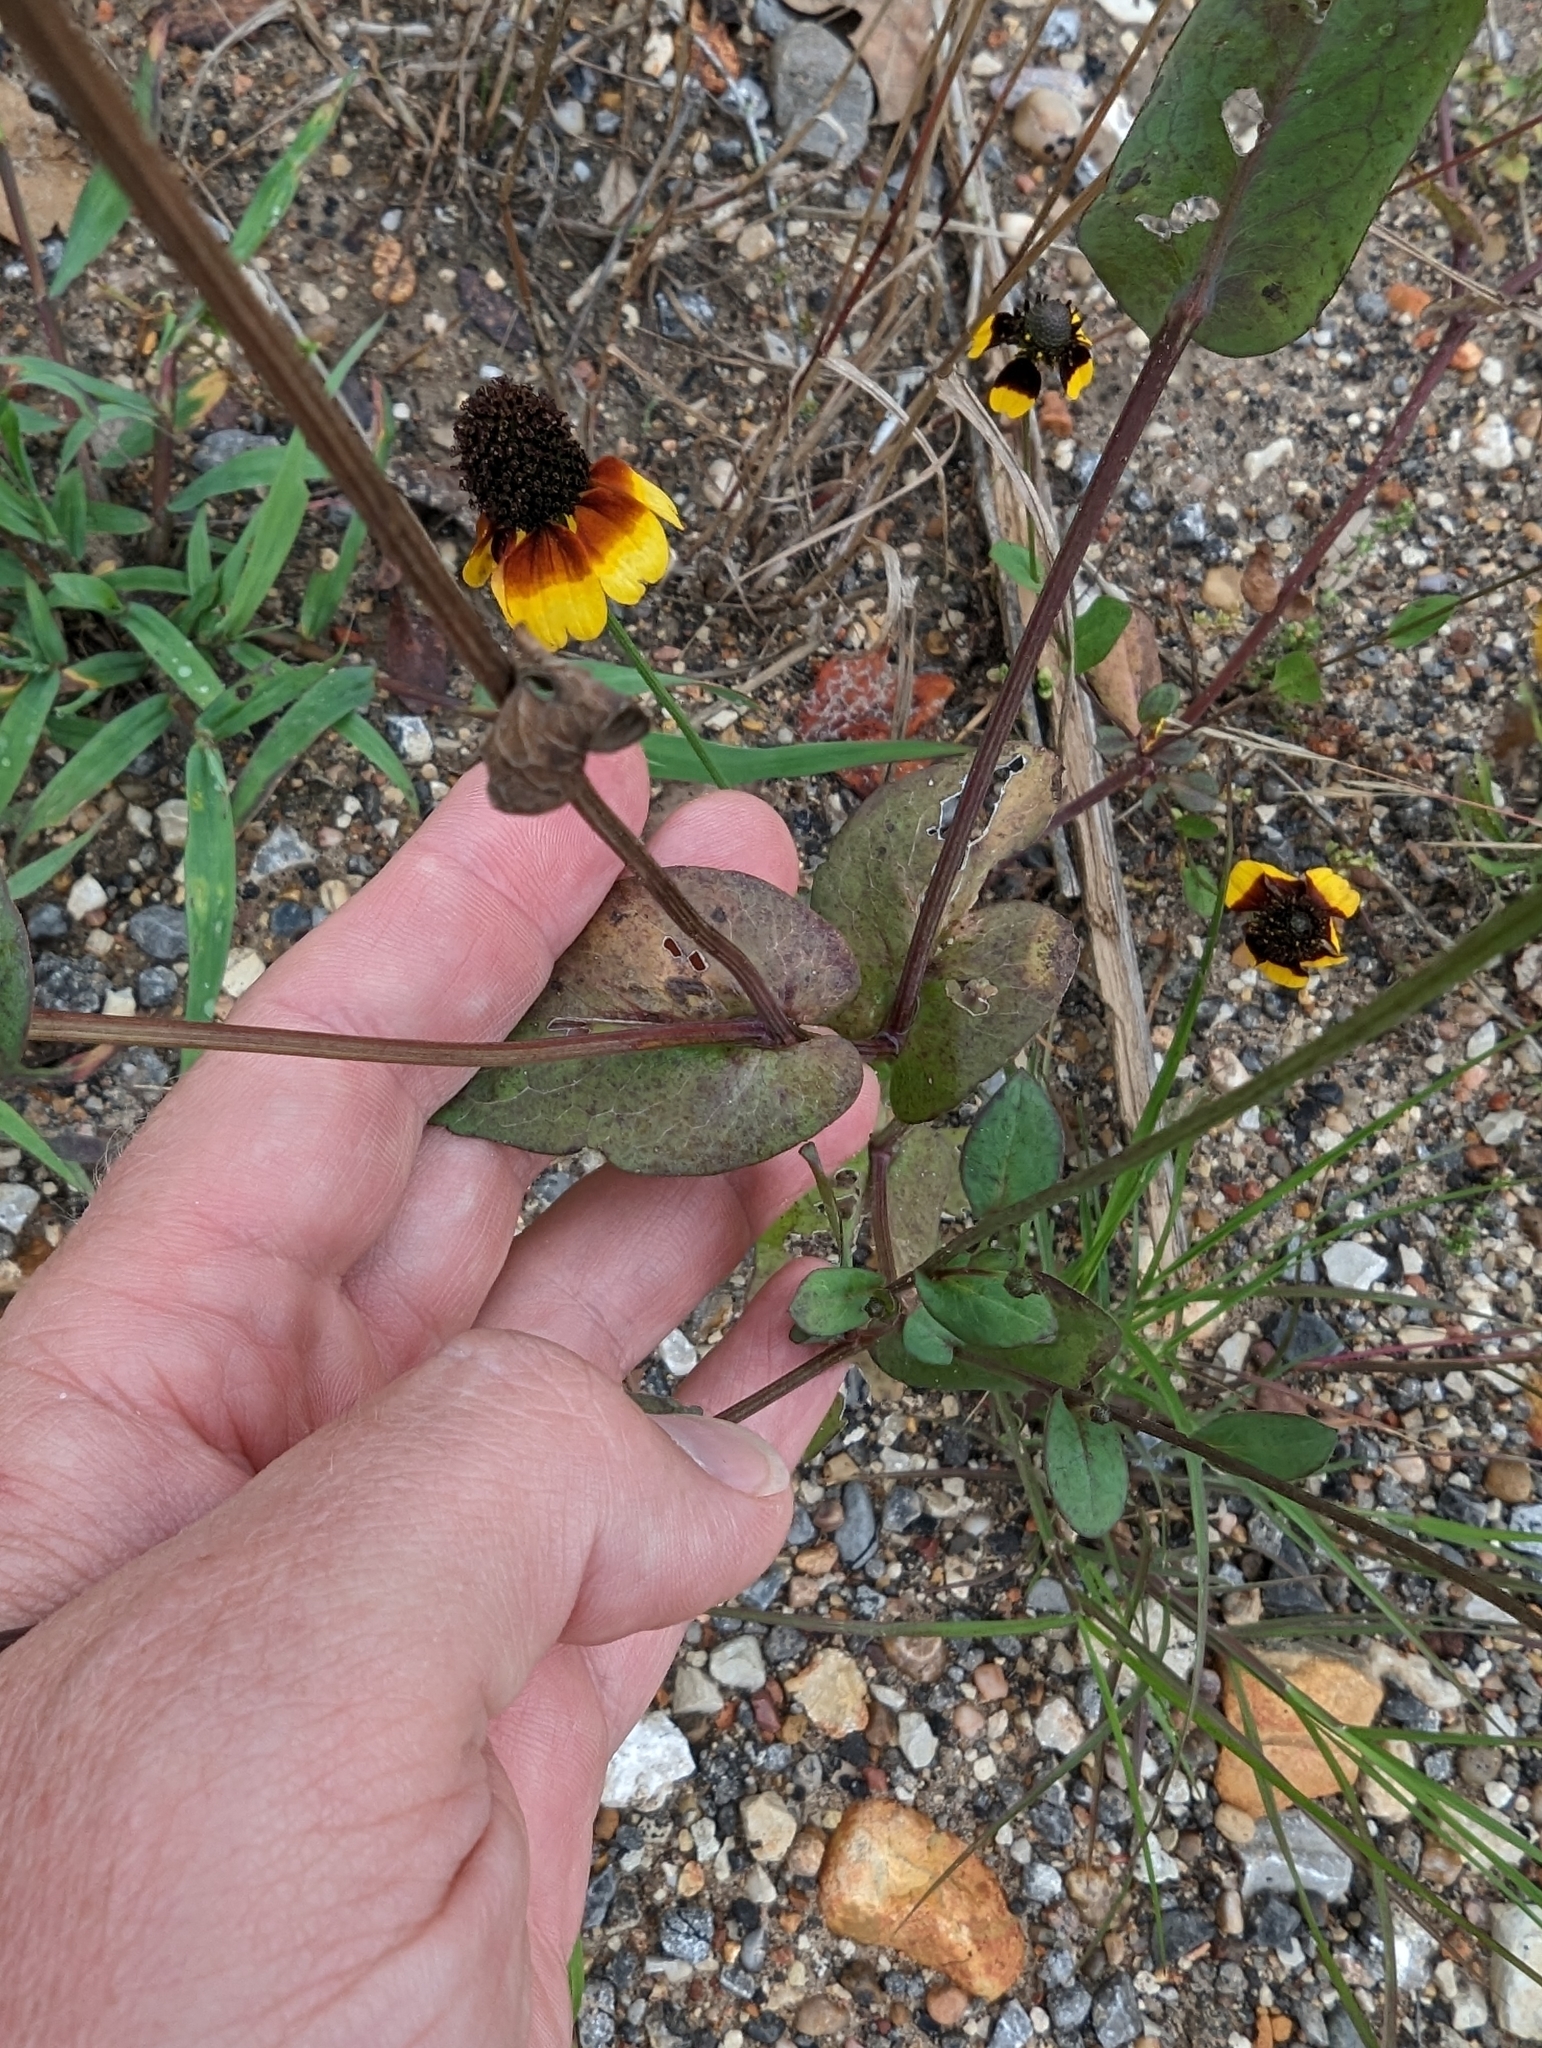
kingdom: Plantae
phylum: Tracheophyta
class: Magnoliopsida
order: Asterales
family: Asteraceae
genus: Rudbeckia
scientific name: Rudbeckia amplexicaulis
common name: Clasping-leaf coneflower
